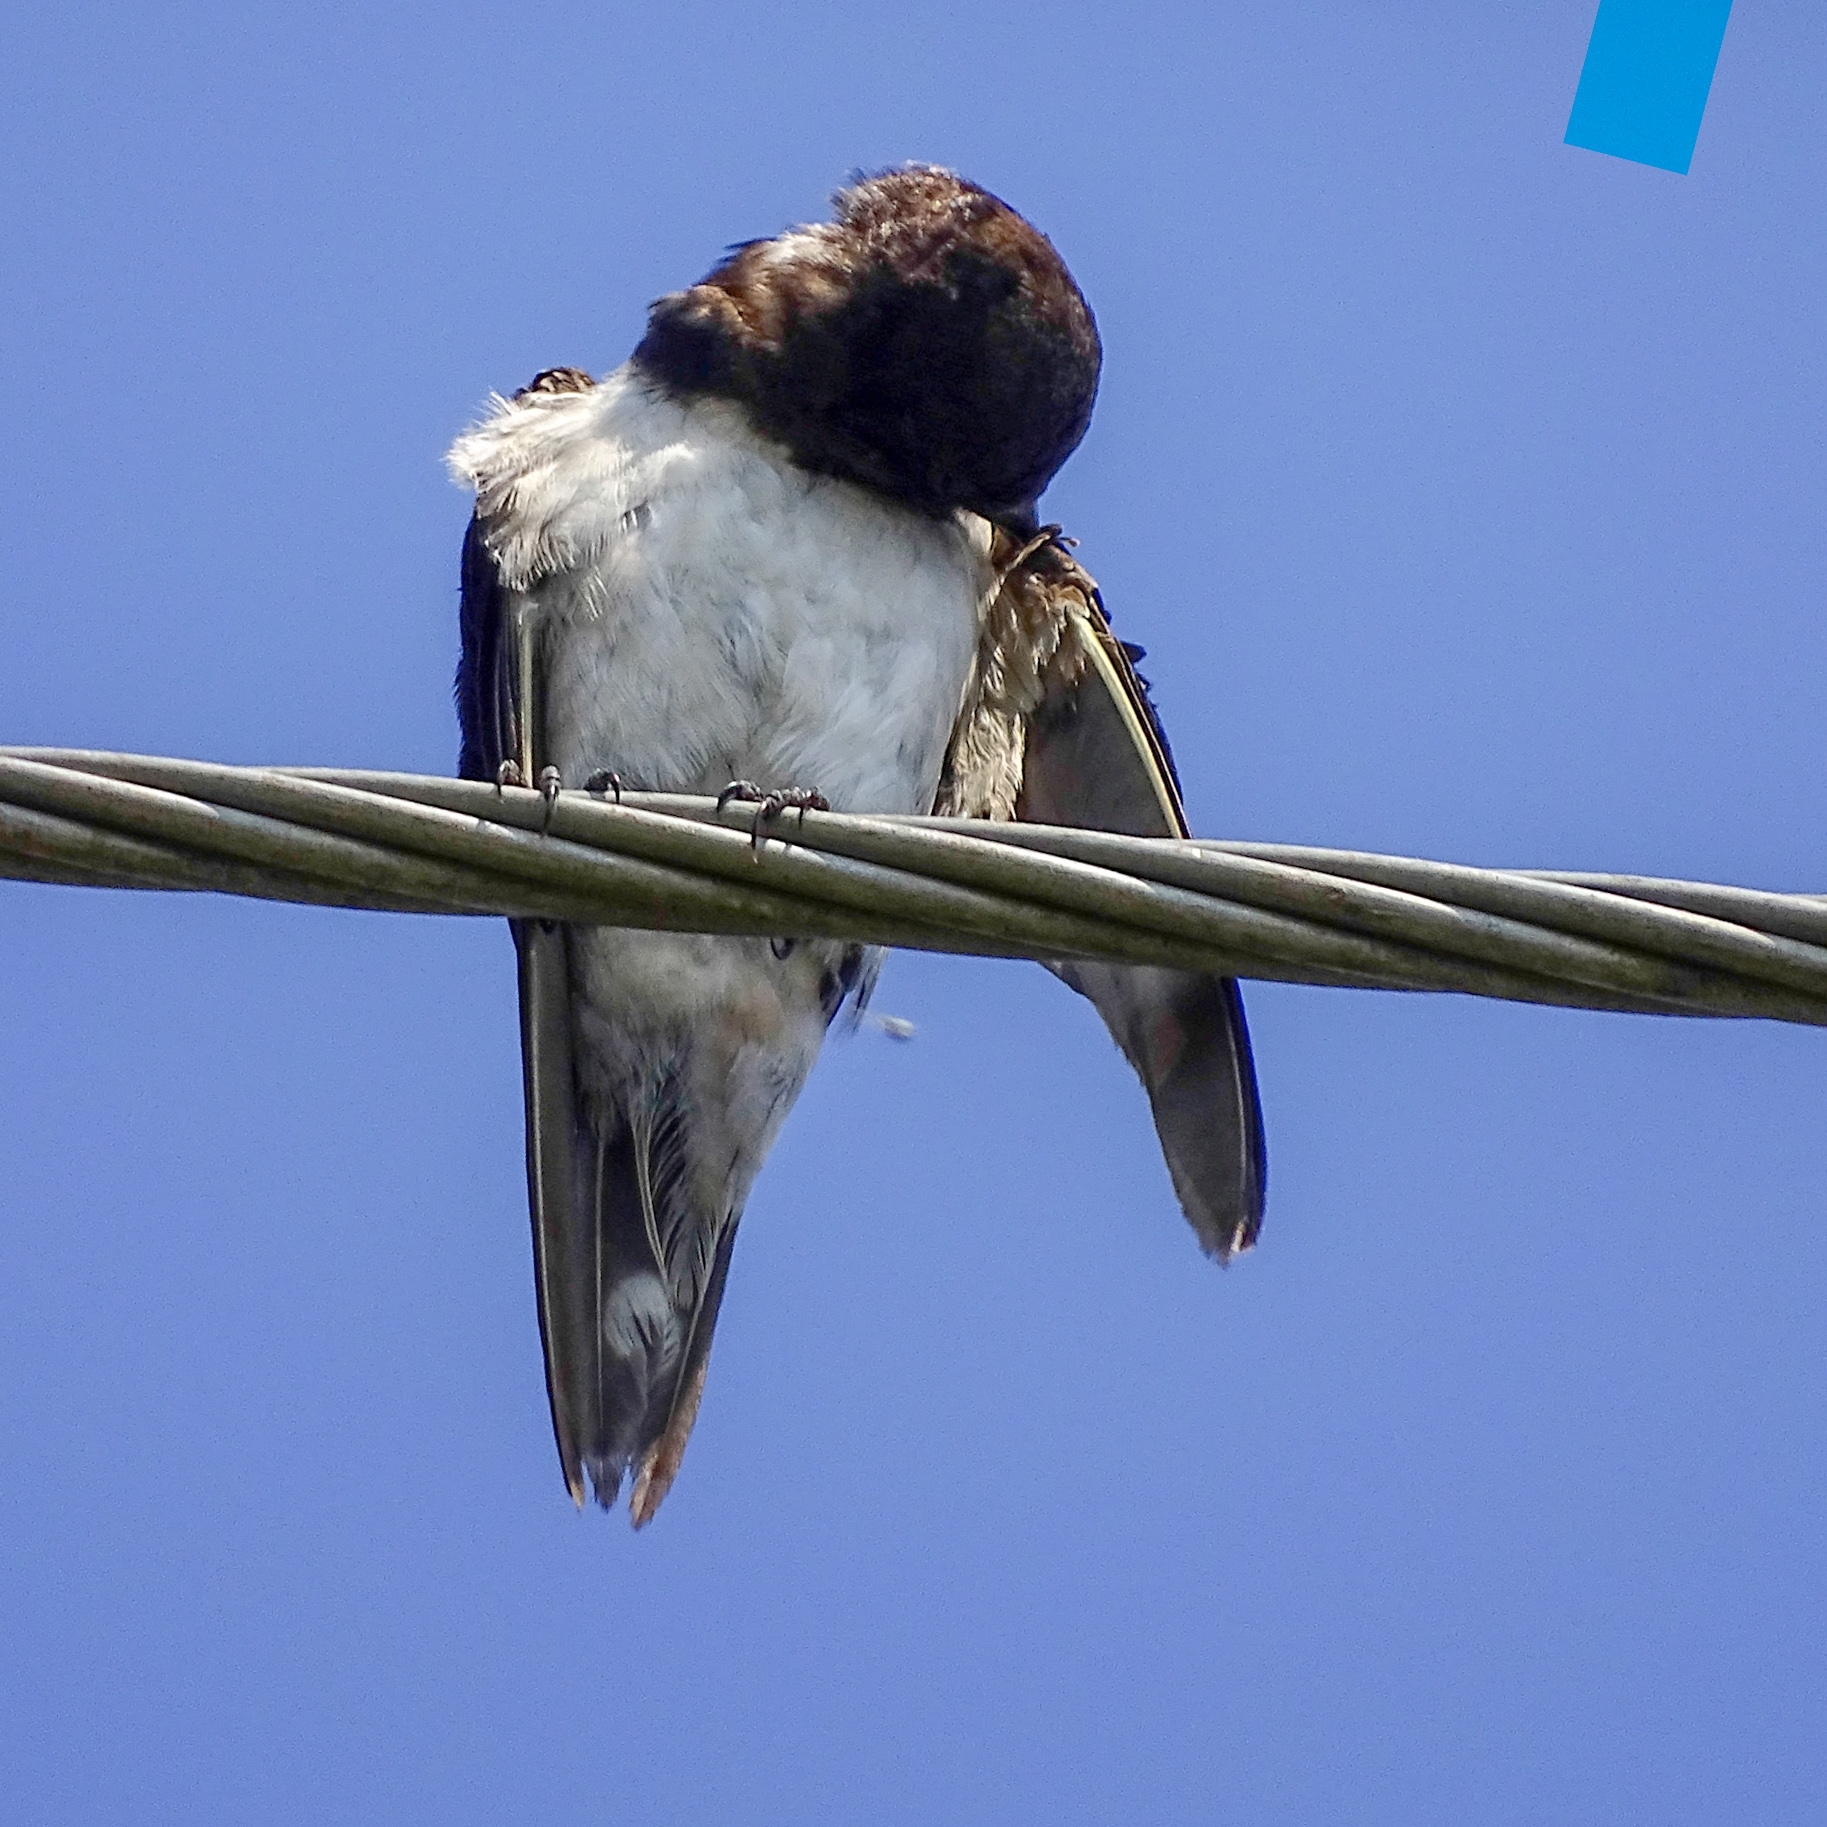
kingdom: Animalia
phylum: Chordata
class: Aves
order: Passeriformes
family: Hirundinidae
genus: Hirundo
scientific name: Hirundo rustica
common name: Barn swallow
